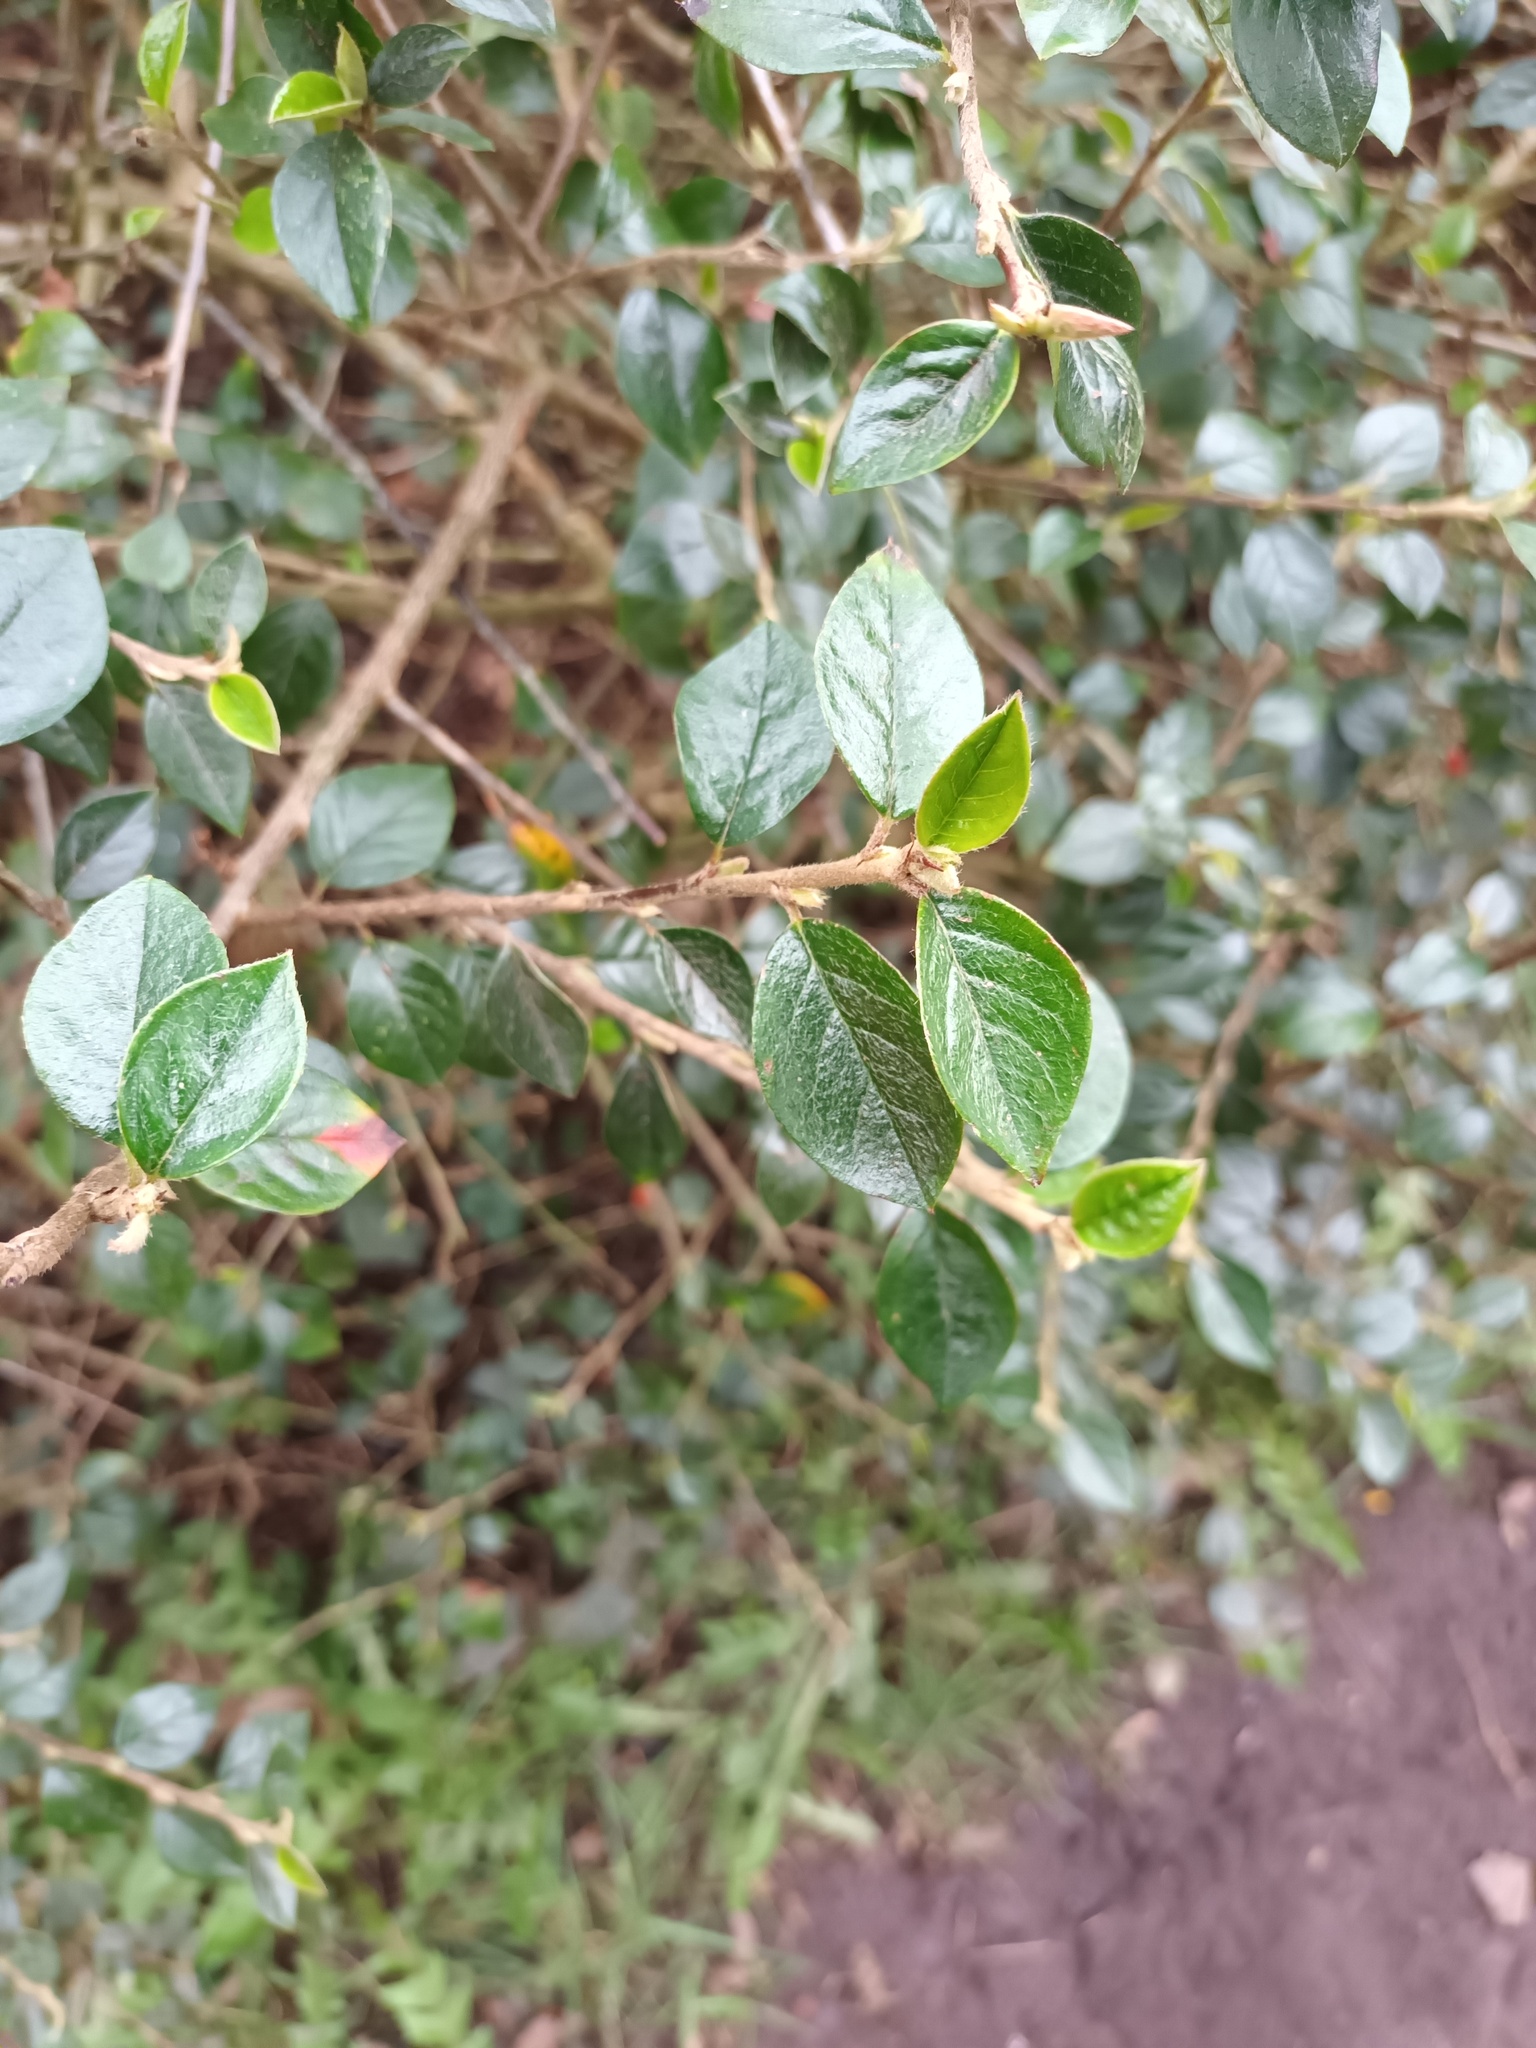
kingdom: Plantae
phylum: Tracheophyta
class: Magnoliopsida
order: Rosales
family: Rosaceae
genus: Cotoneaster
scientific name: Cotoneaster simonsii
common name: Himalayan cotoneaster
